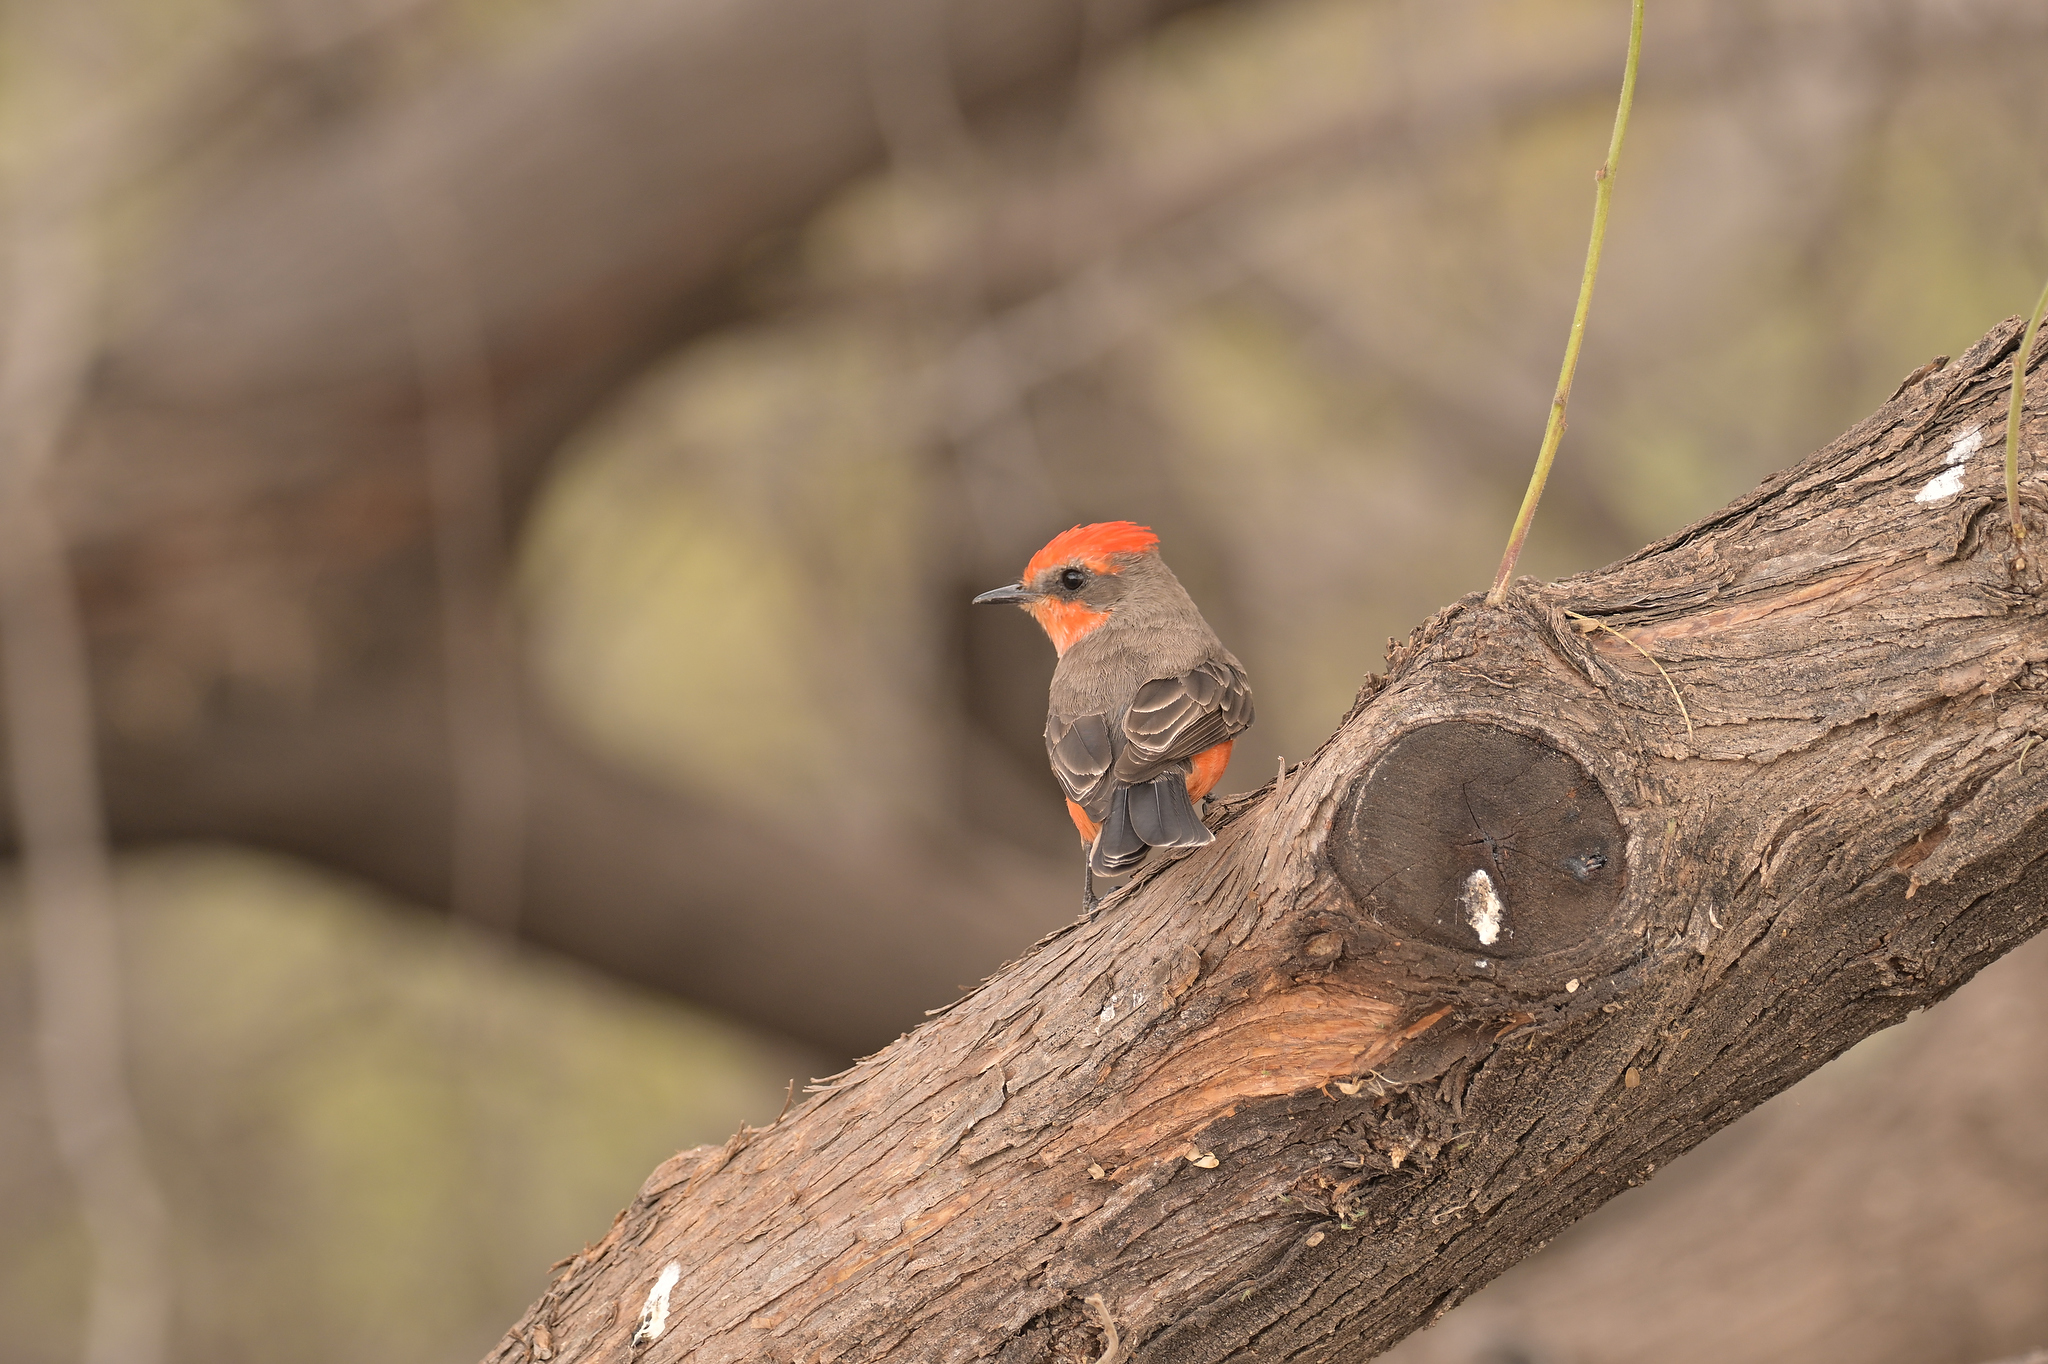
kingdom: Animalia
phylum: Chordata
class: Aves
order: Passeriformes
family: Tyrannidae
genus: Pyrocephalus
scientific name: Pyrocephalus rubinus
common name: Vermilion flycatcher
